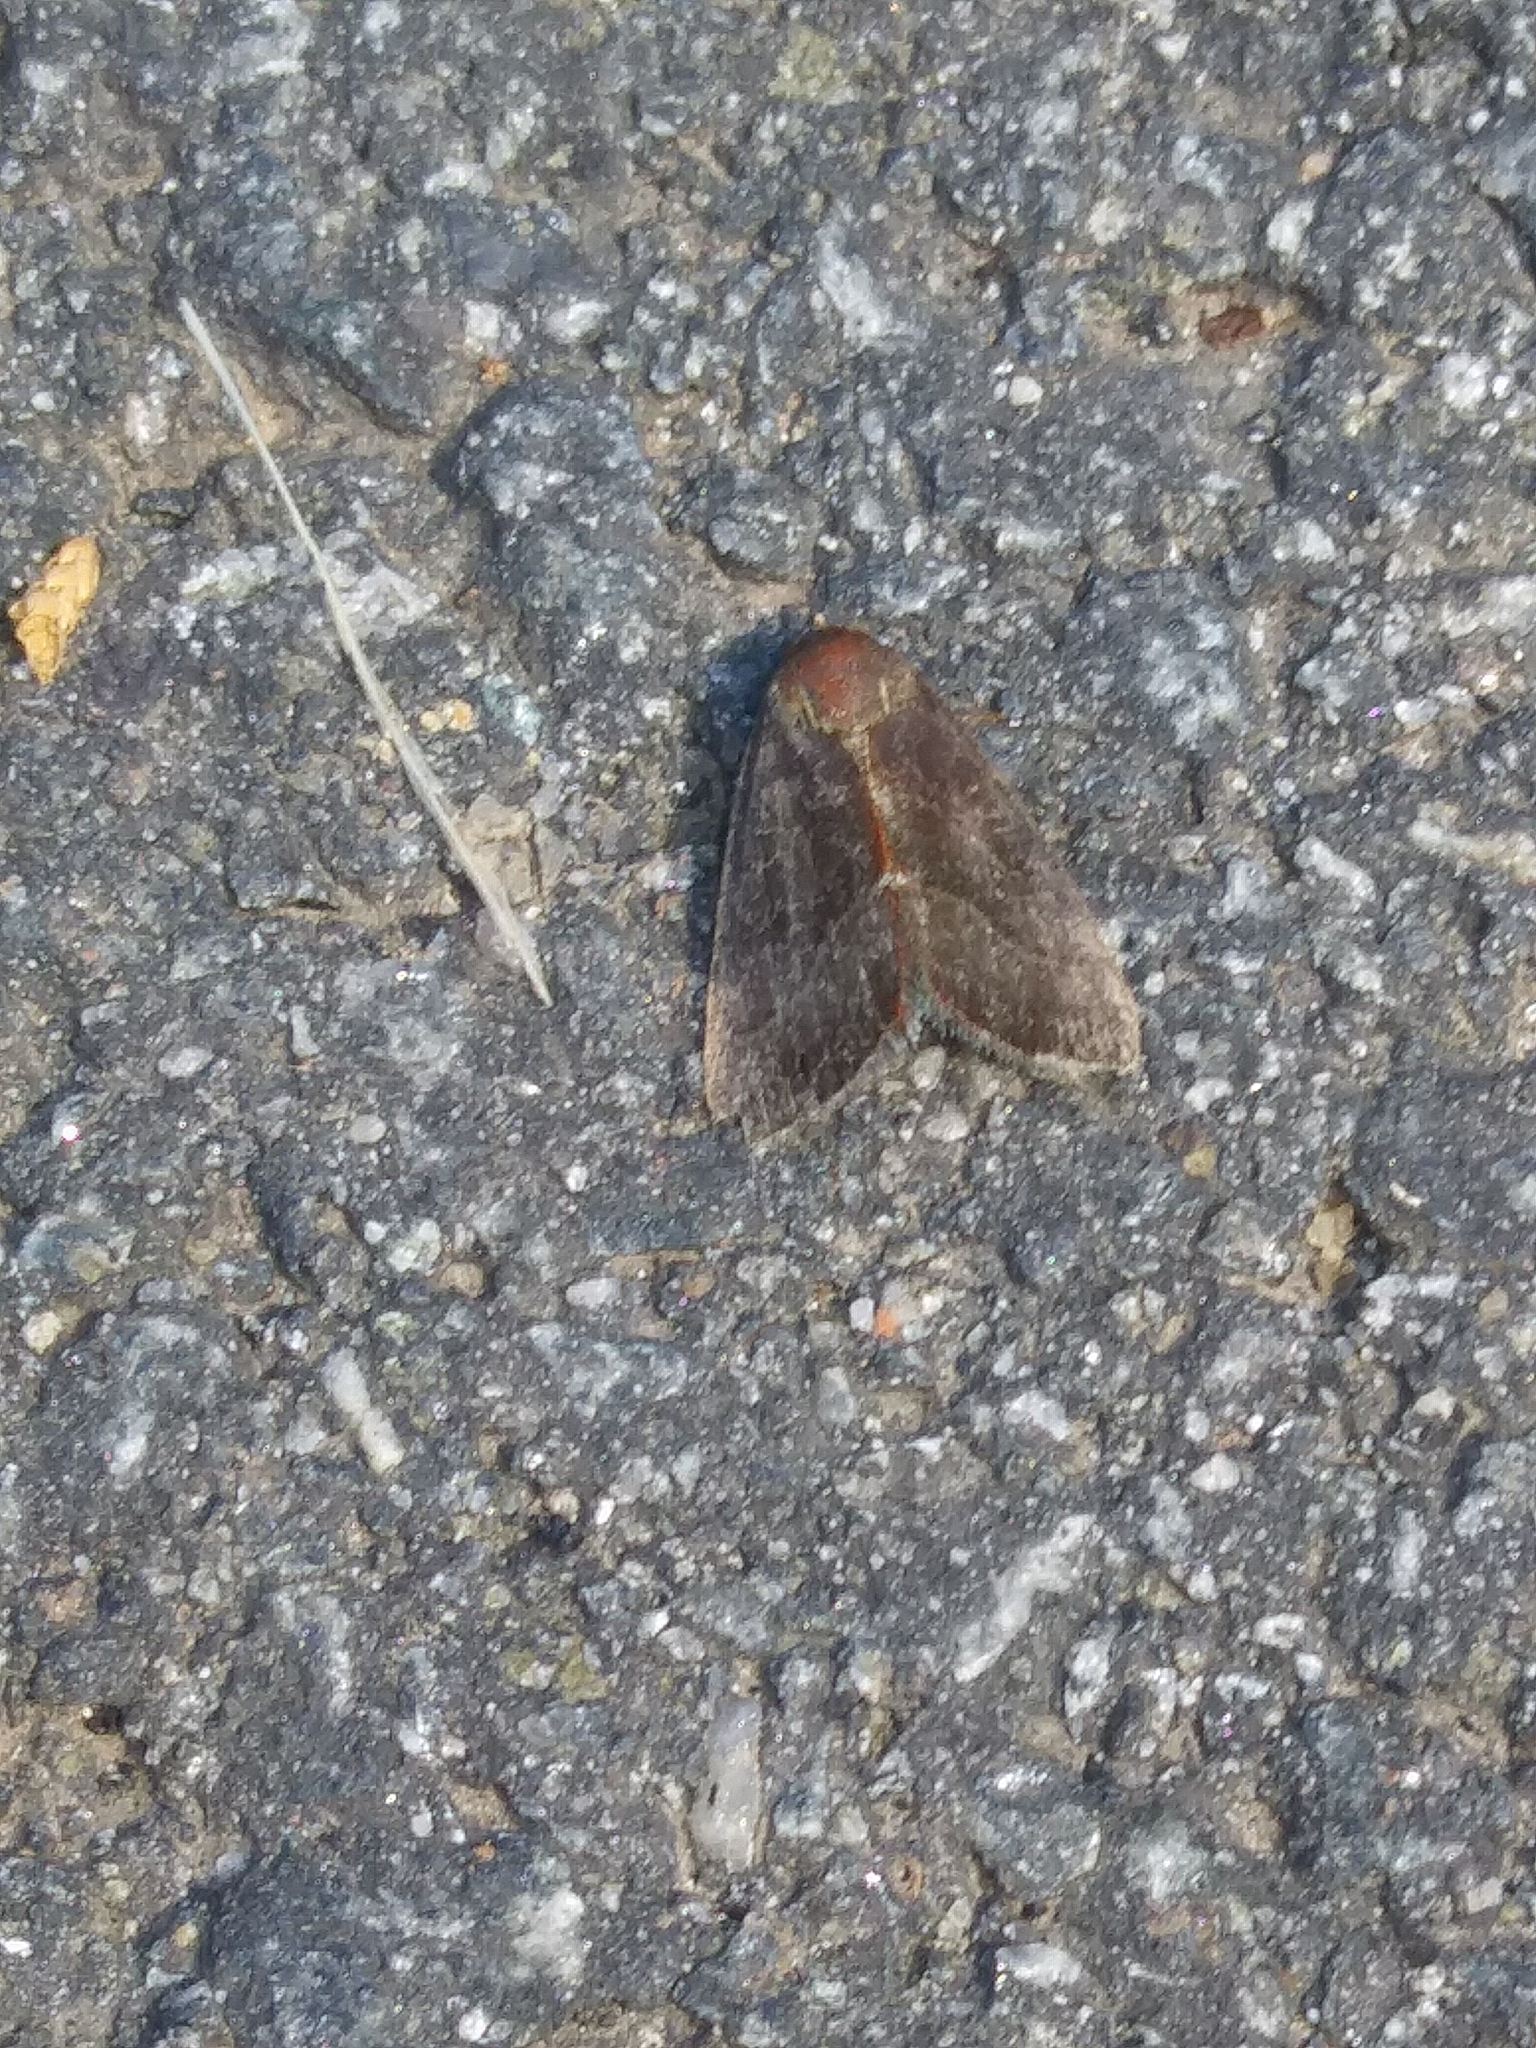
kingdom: Animalia
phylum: Arthropoda
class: Insecta
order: Lepidoptera
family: Noctuidae
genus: Galgula
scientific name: Galgula partita
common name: Wedgeling
